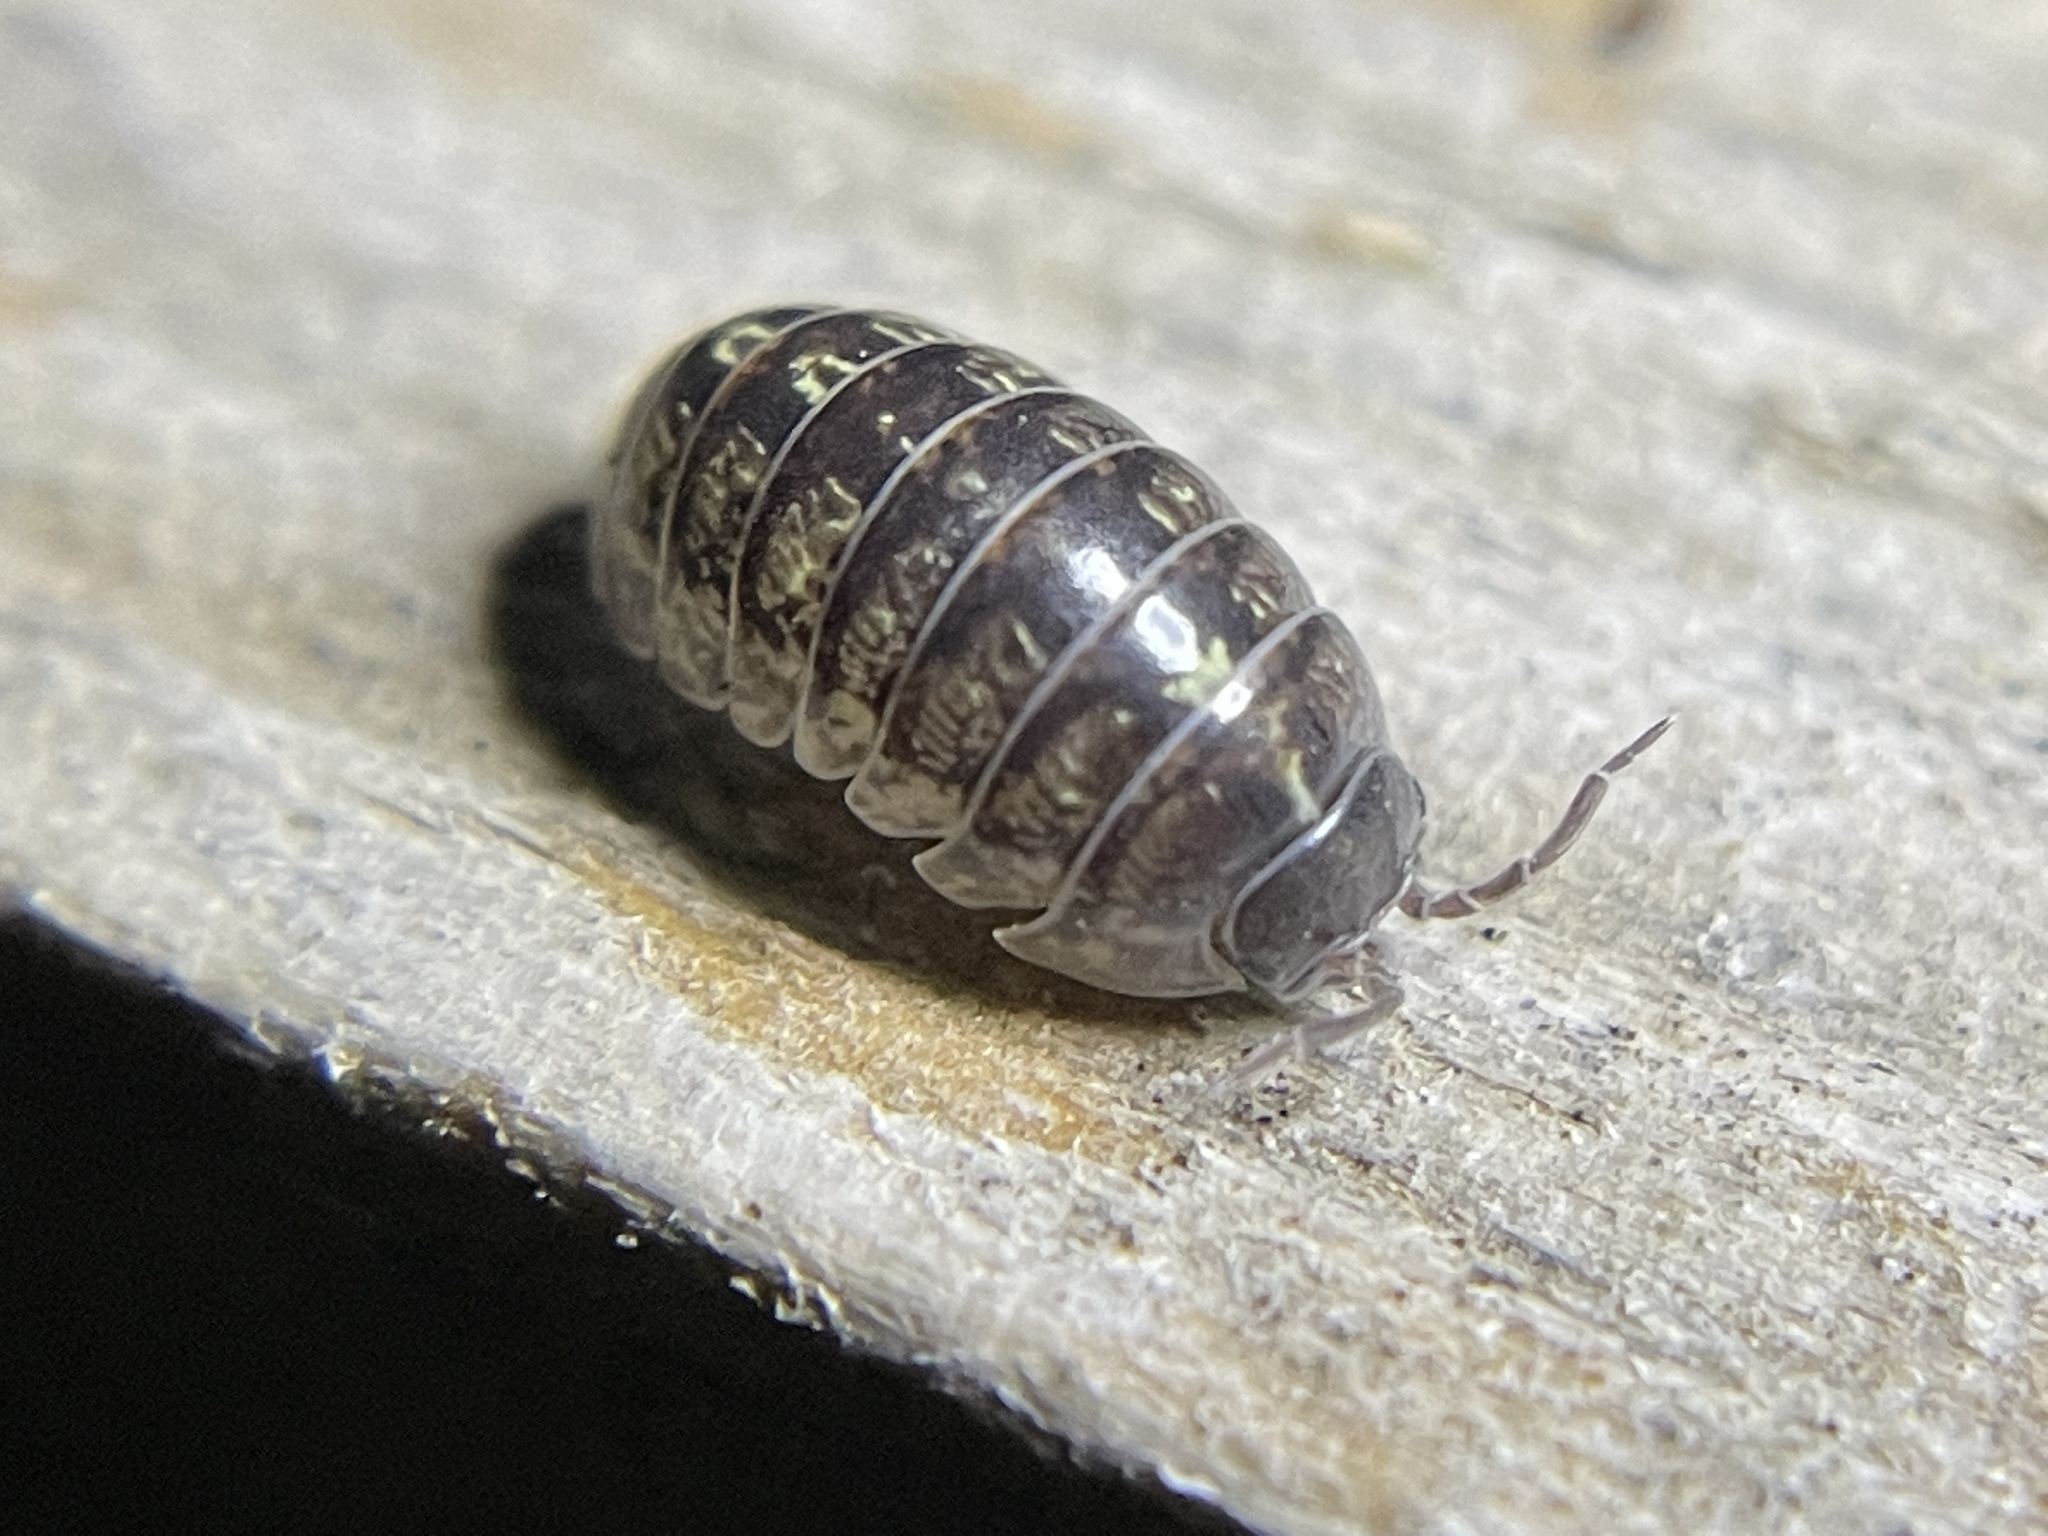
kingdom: Animalia
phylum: Arthropoda
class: Malacostraca
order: Isopoda
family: Armadillidiidae
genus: Armadillidium
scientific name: Armadillidium vulgare
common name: Common pill woodlouse
